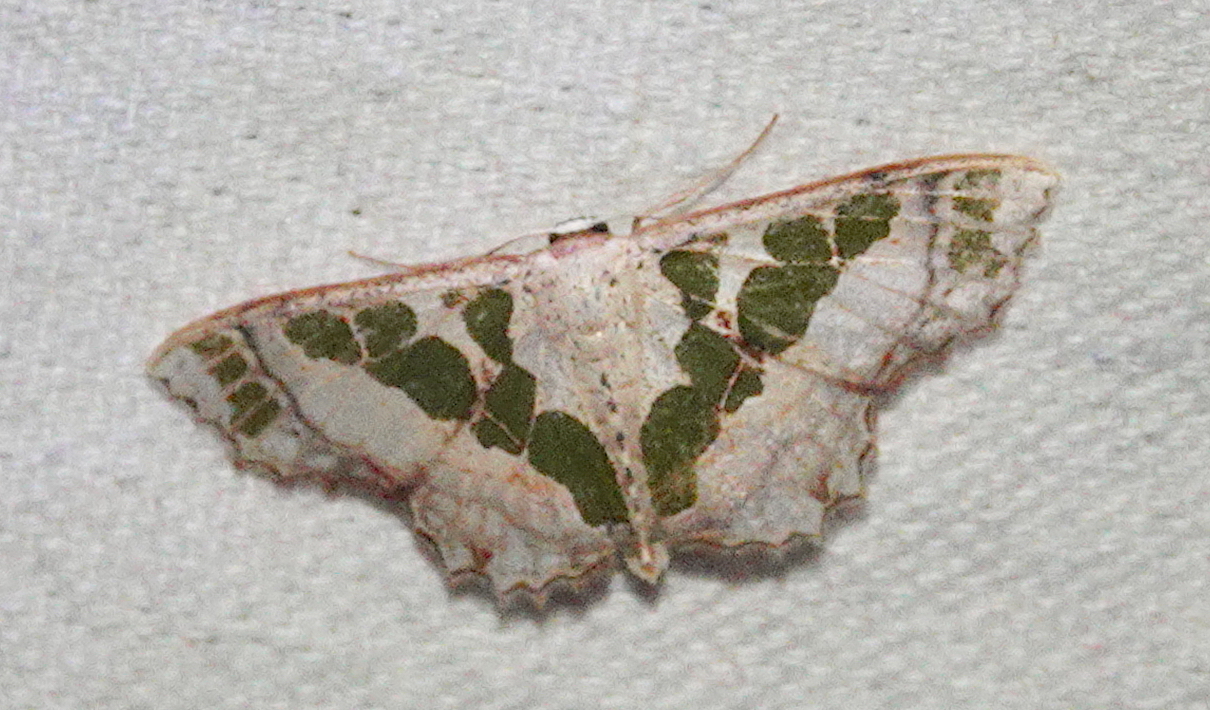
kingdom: Animalia
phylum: Arthropoda
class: Insecta
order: Lepidoptera
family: Geometridae
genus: Scopula
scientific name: Scopula divisaria
